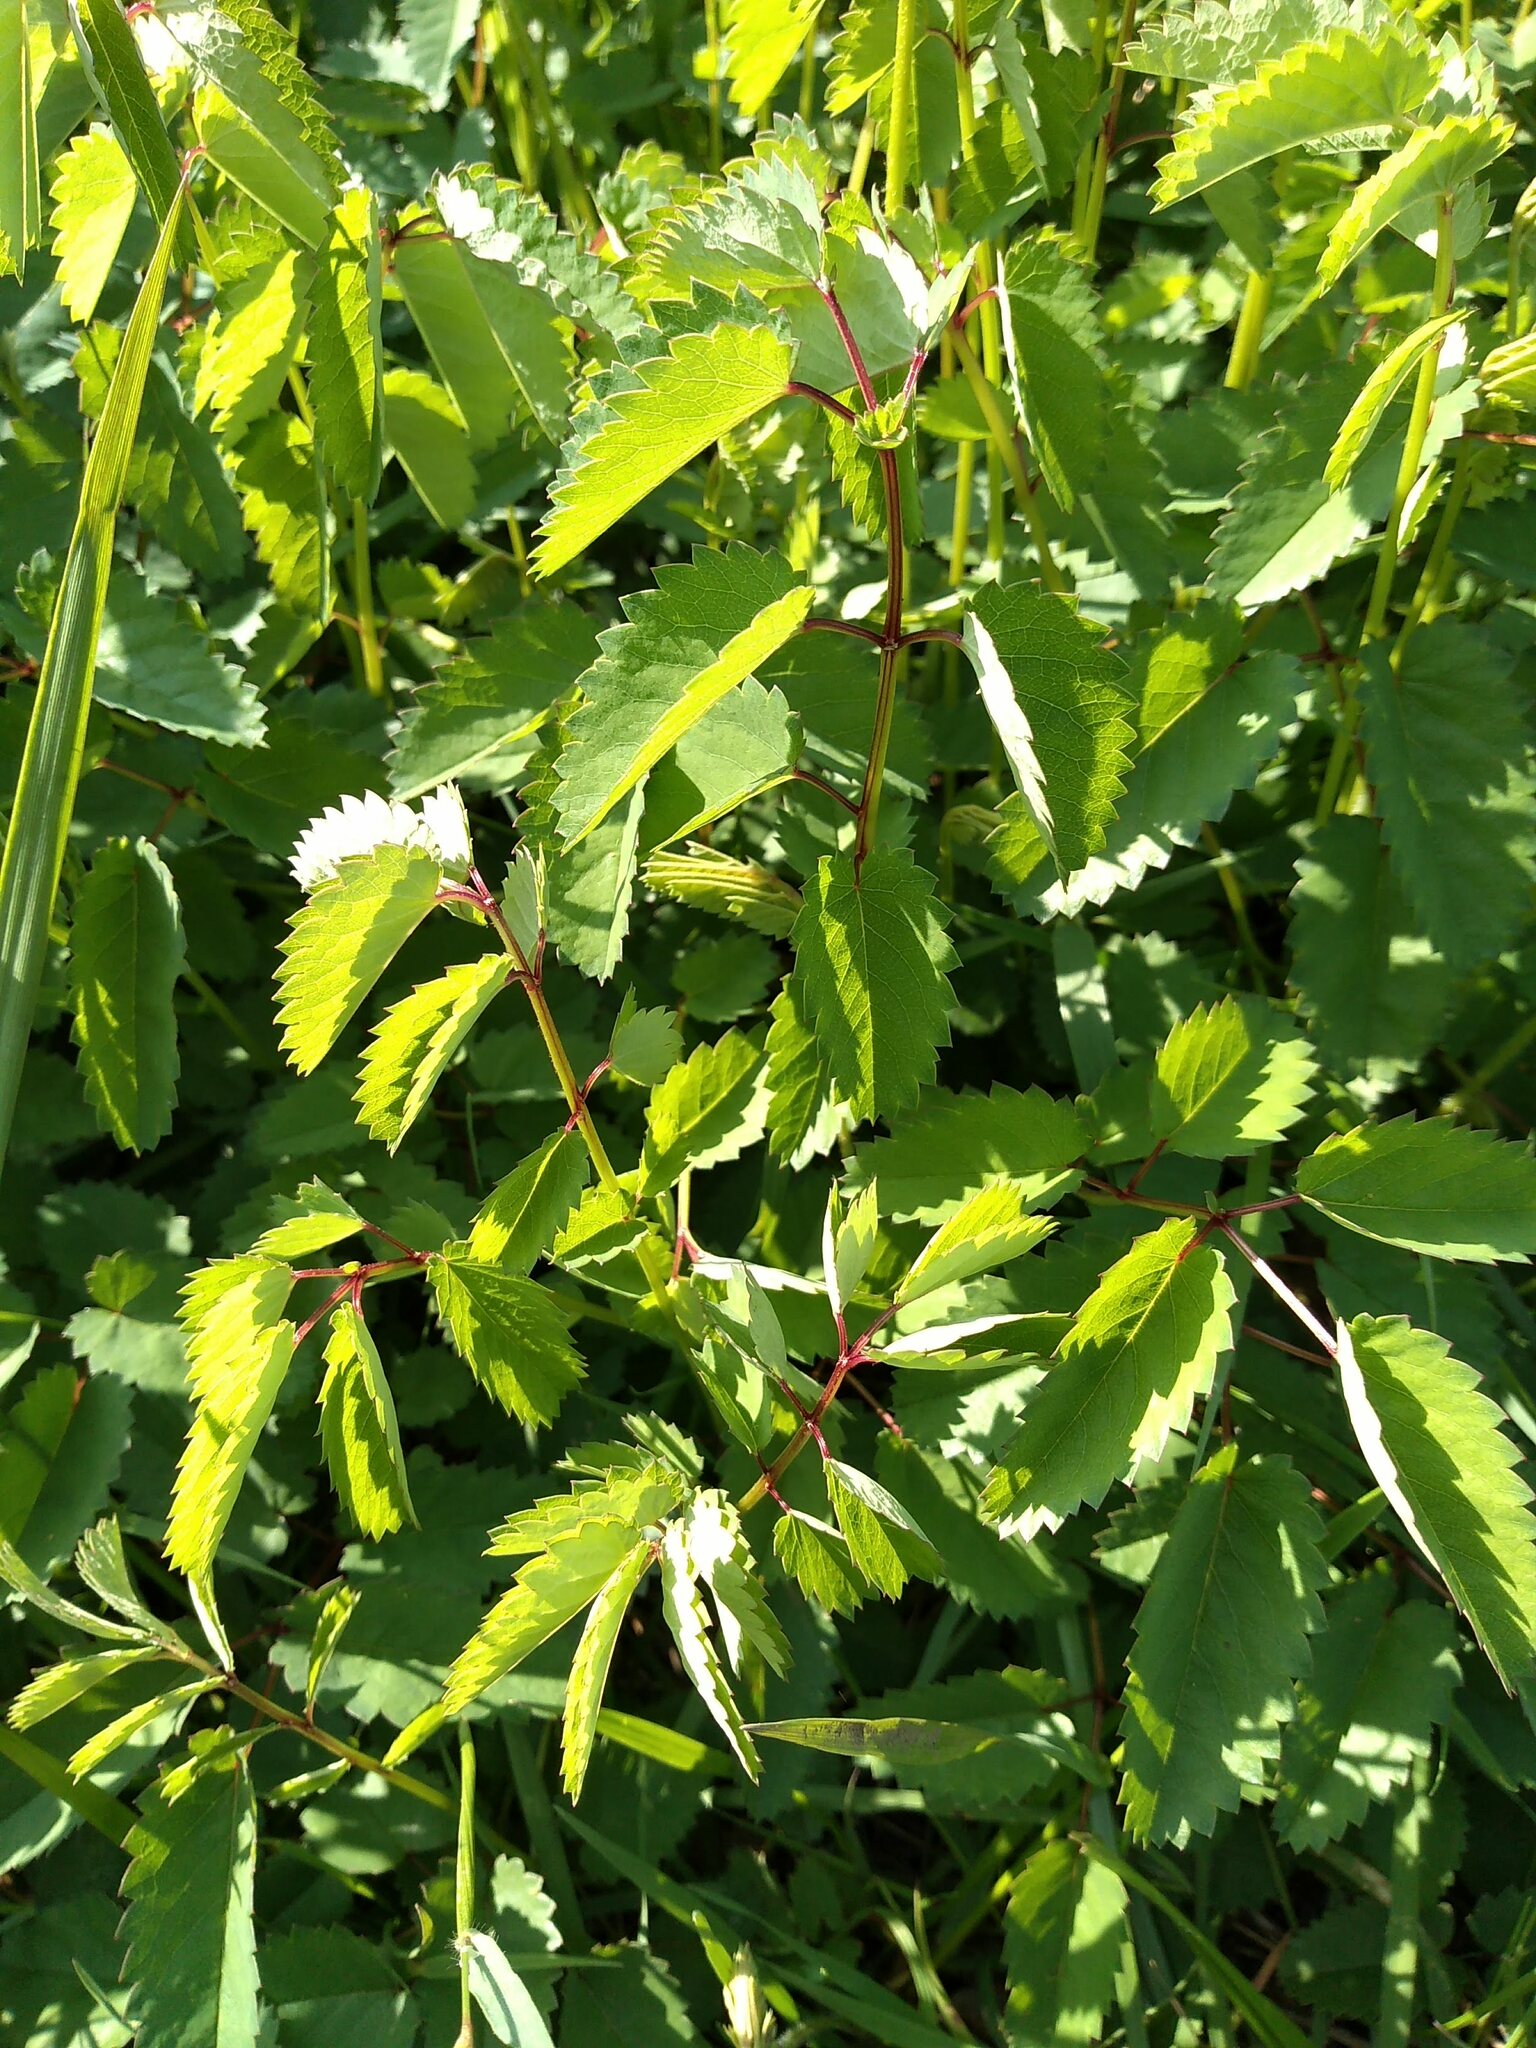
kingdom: Plantae
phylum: Tracheophyta
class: Magnoliopsida
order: Rosales
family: Rosaceae
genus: Sanguisorba
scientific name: Sanguisorba officinalis
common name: Great burnet
